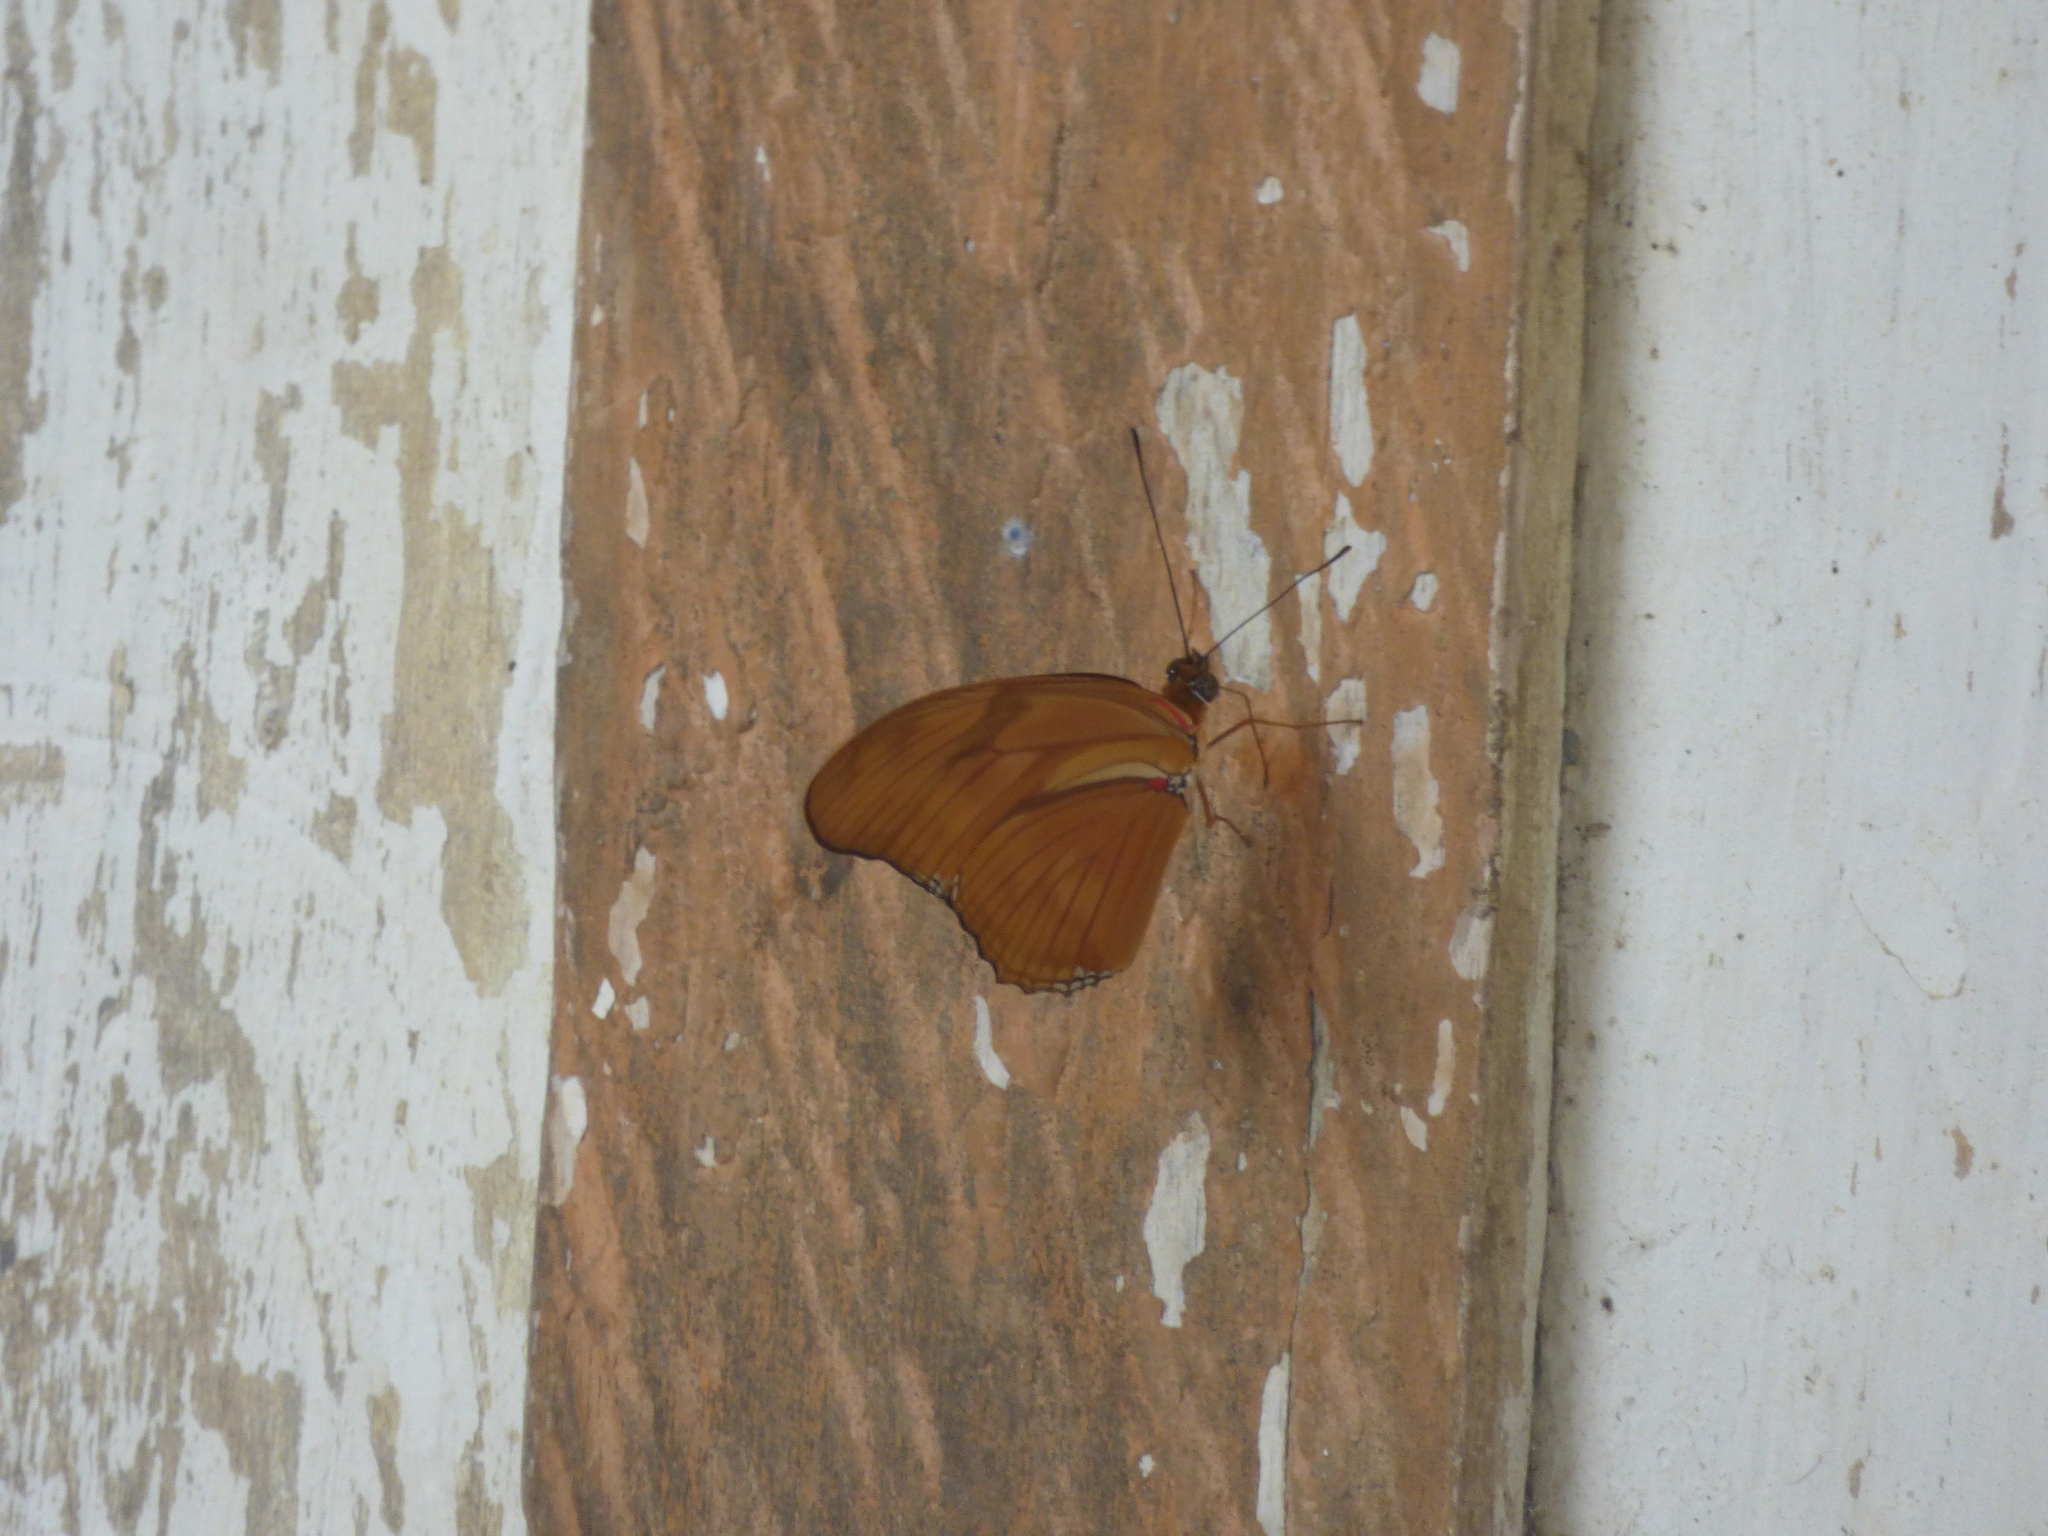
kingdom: Animalia
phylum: Arthropoda
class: Insecta
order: Lepidoptera
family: Nymphalidae
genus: Dryas
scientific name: Dryas iulia
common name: Flambeau
